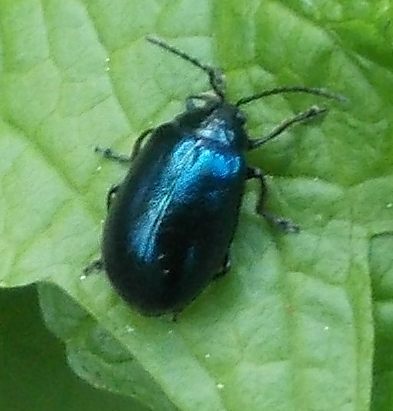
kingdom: Animalia
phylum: Arthropoda
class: Insecta
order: Coleoptera
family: Chrysomelidae
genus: Agelastica
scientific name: Agelastica alni
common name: Alder leaf beetle
